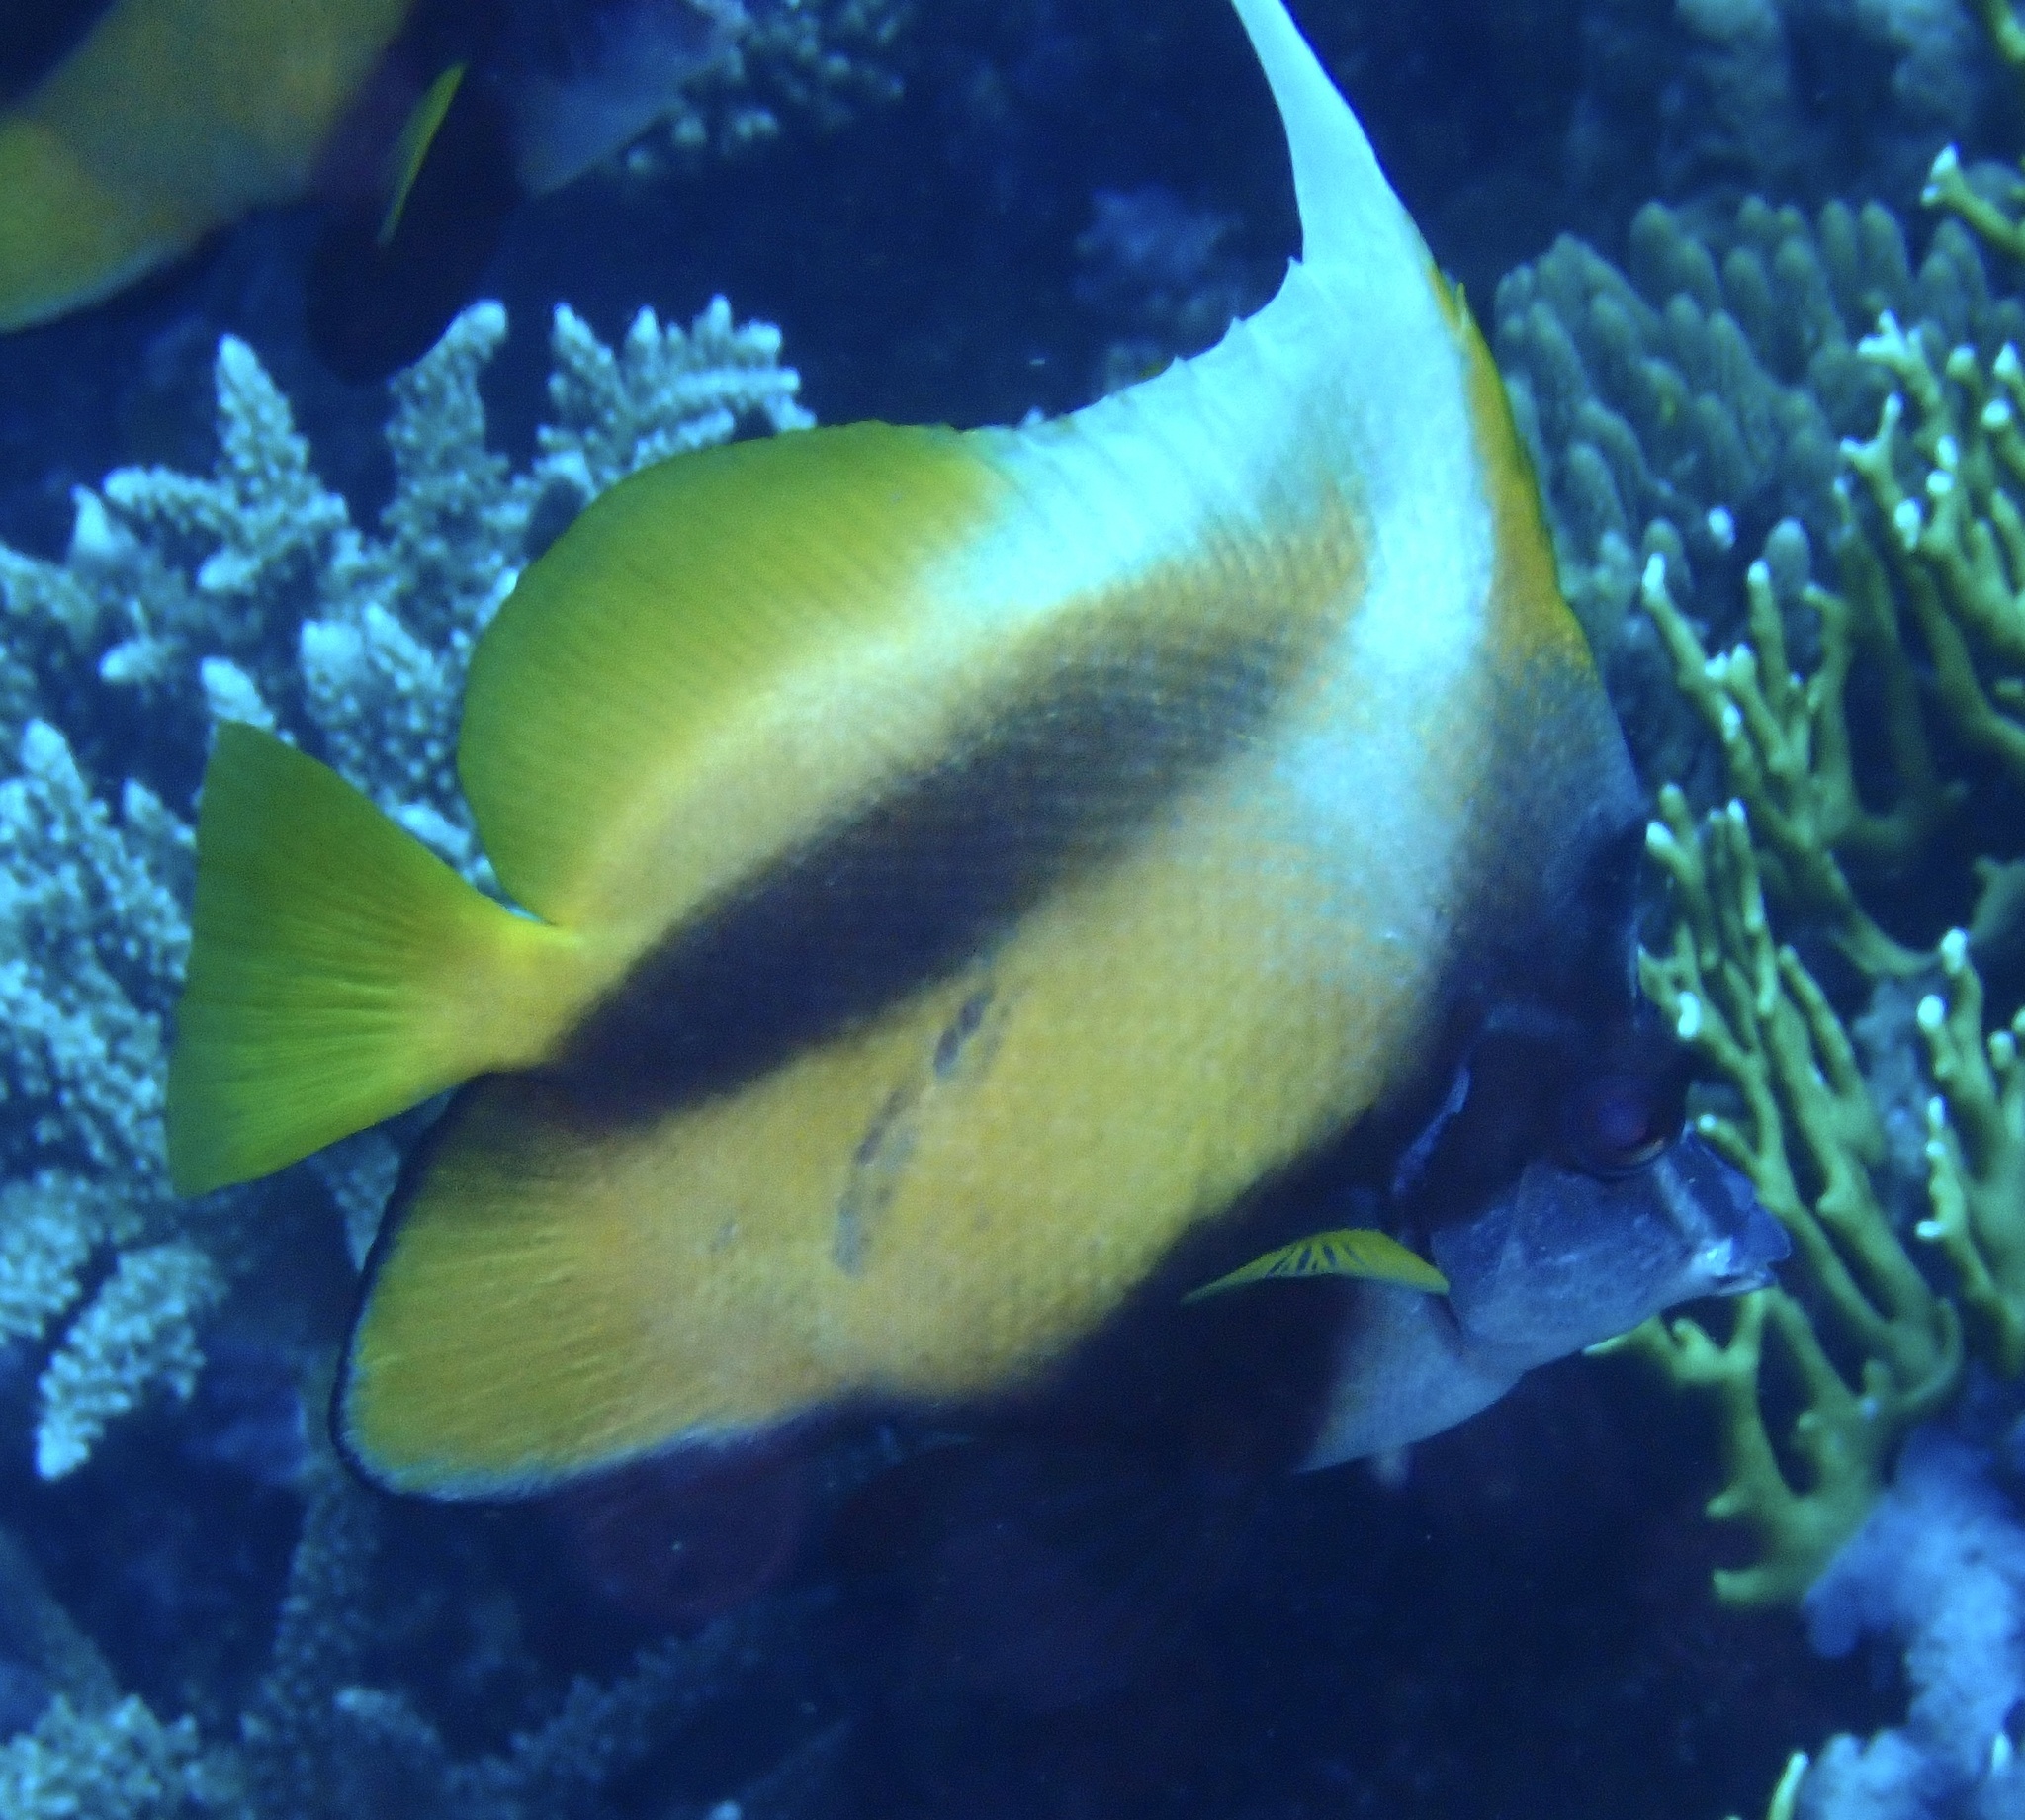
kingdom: Animalia
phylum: Chordata
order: Perciformes
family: Chaetodontidae
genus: Heniochus
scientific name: Heniochus intermedius
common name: Red sea bannerfish
